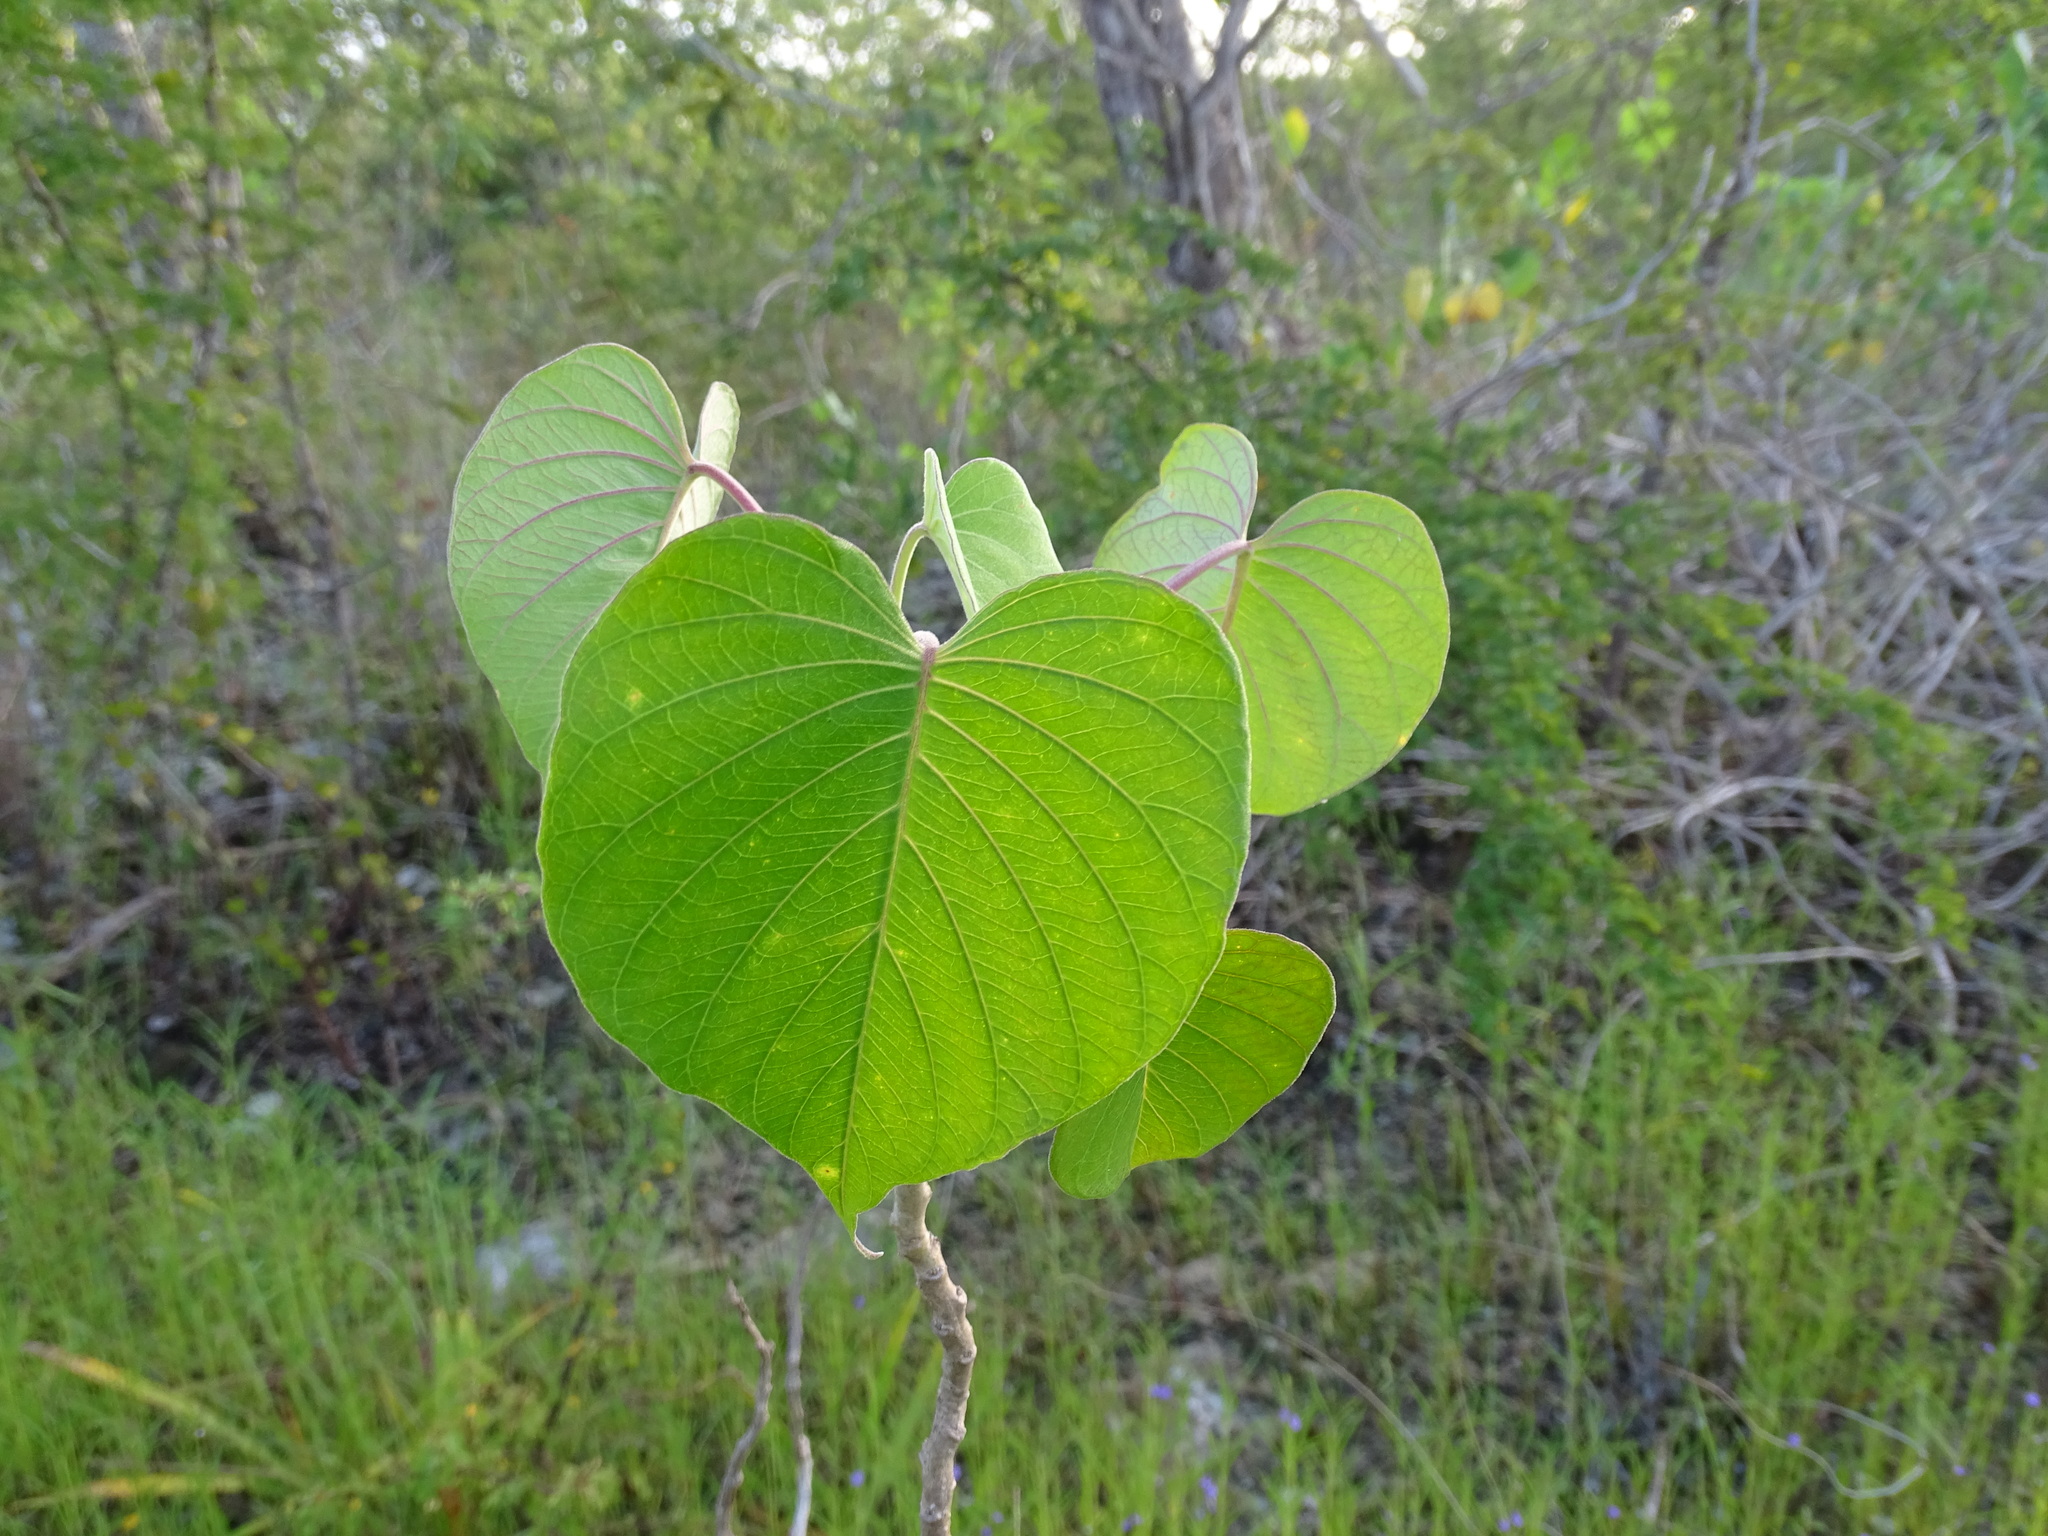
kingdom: Plantae
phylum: Tracheophyta
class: Magnoliopsida
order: Solanales
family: Convolvulaceae
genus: Ipomoea
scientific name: Ipomoea carnea
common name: Morning-glory
